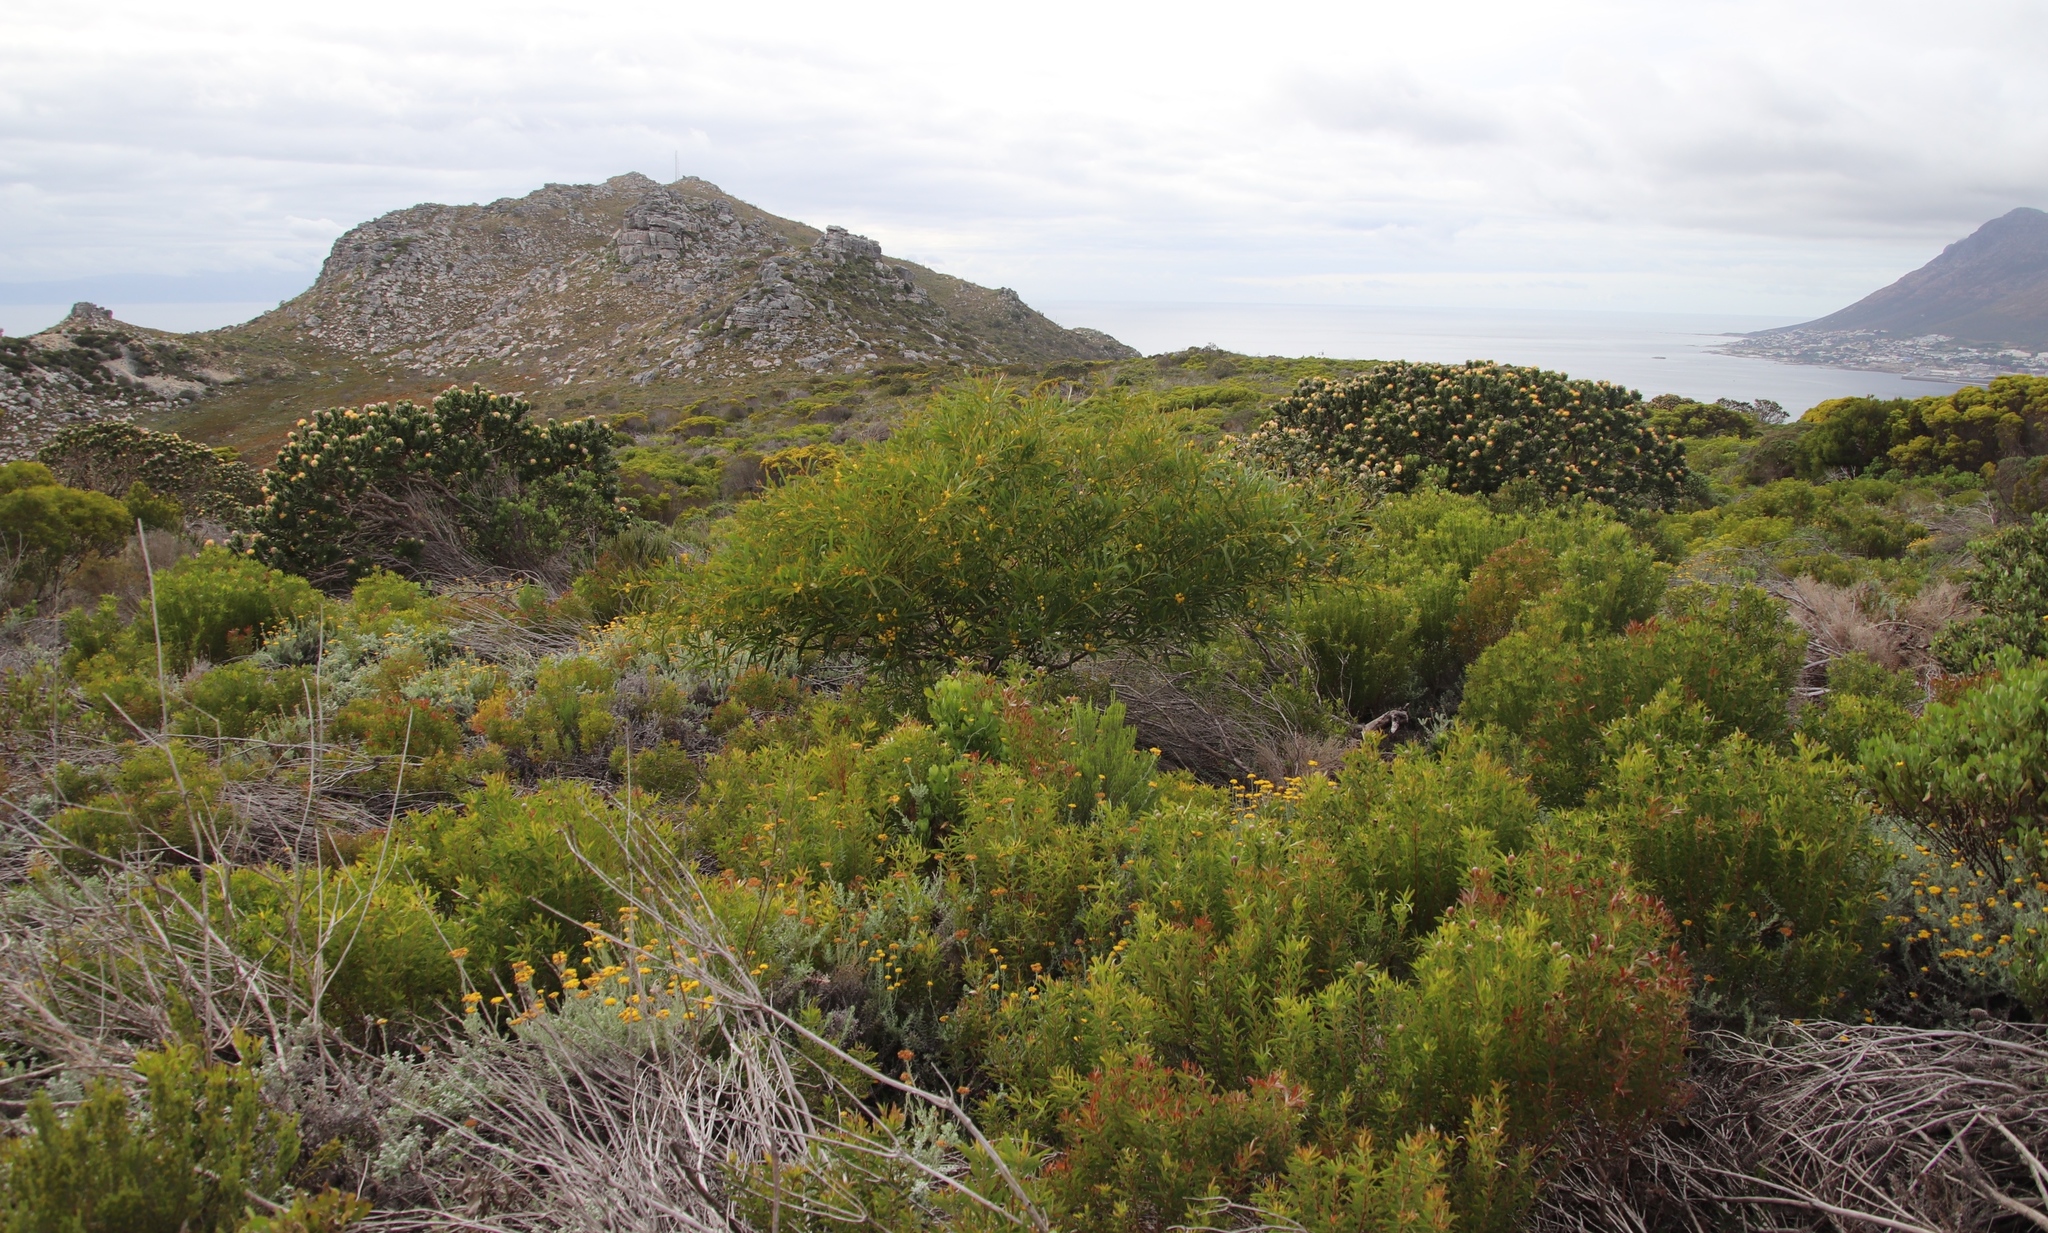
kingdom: Plantae
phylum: Tracheophyta
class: Magnoliopsida
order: Fabales
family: Fabaceae
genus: Acacia
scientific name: Acacia saligna
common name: Orange wattle
